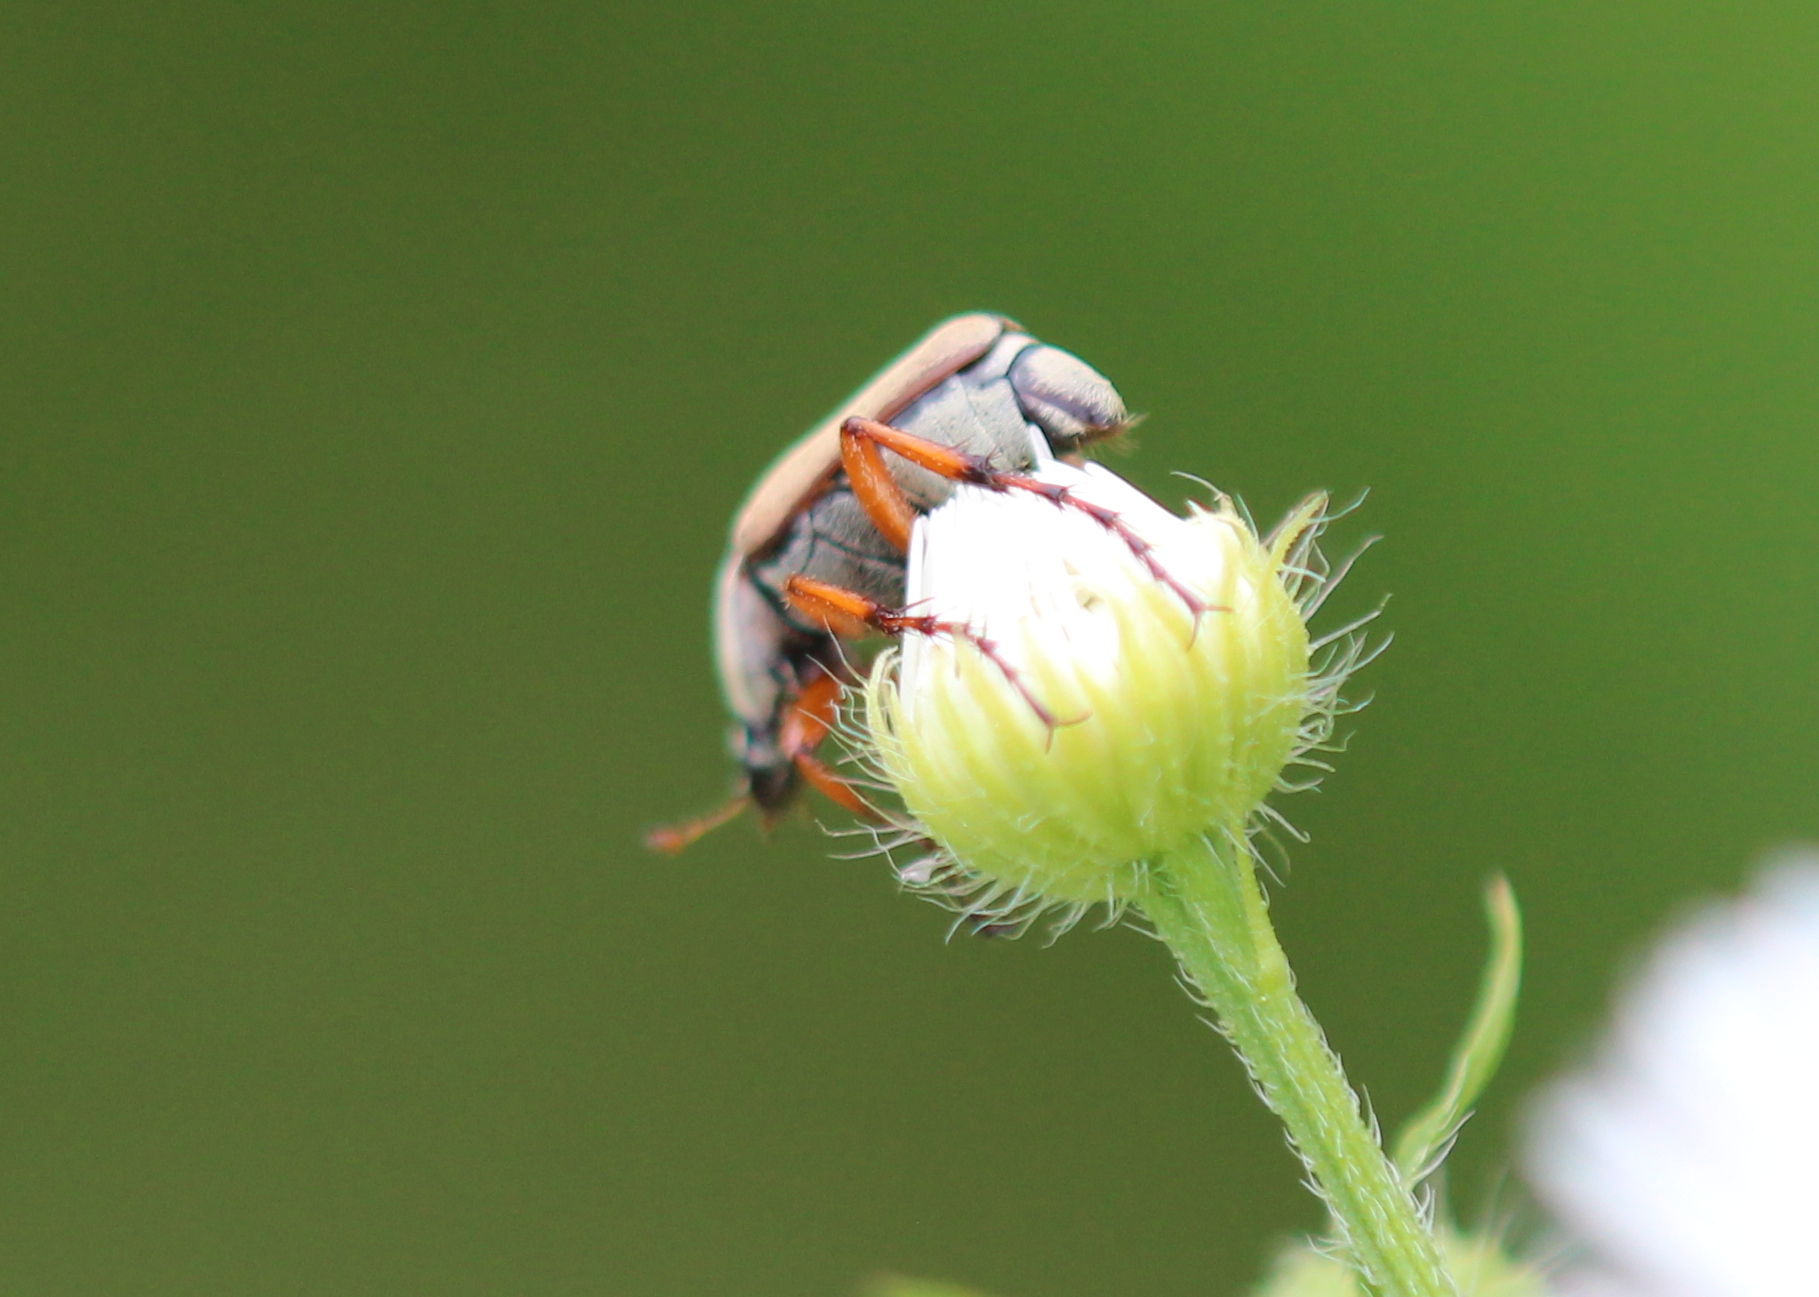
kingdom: Animalia
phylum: Arthropoda
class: Insecta
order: Coleoptera
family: Scarabaeidae
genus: Macrodactylus
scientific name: Macrodactylus subspinosus
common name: American rose chafer
